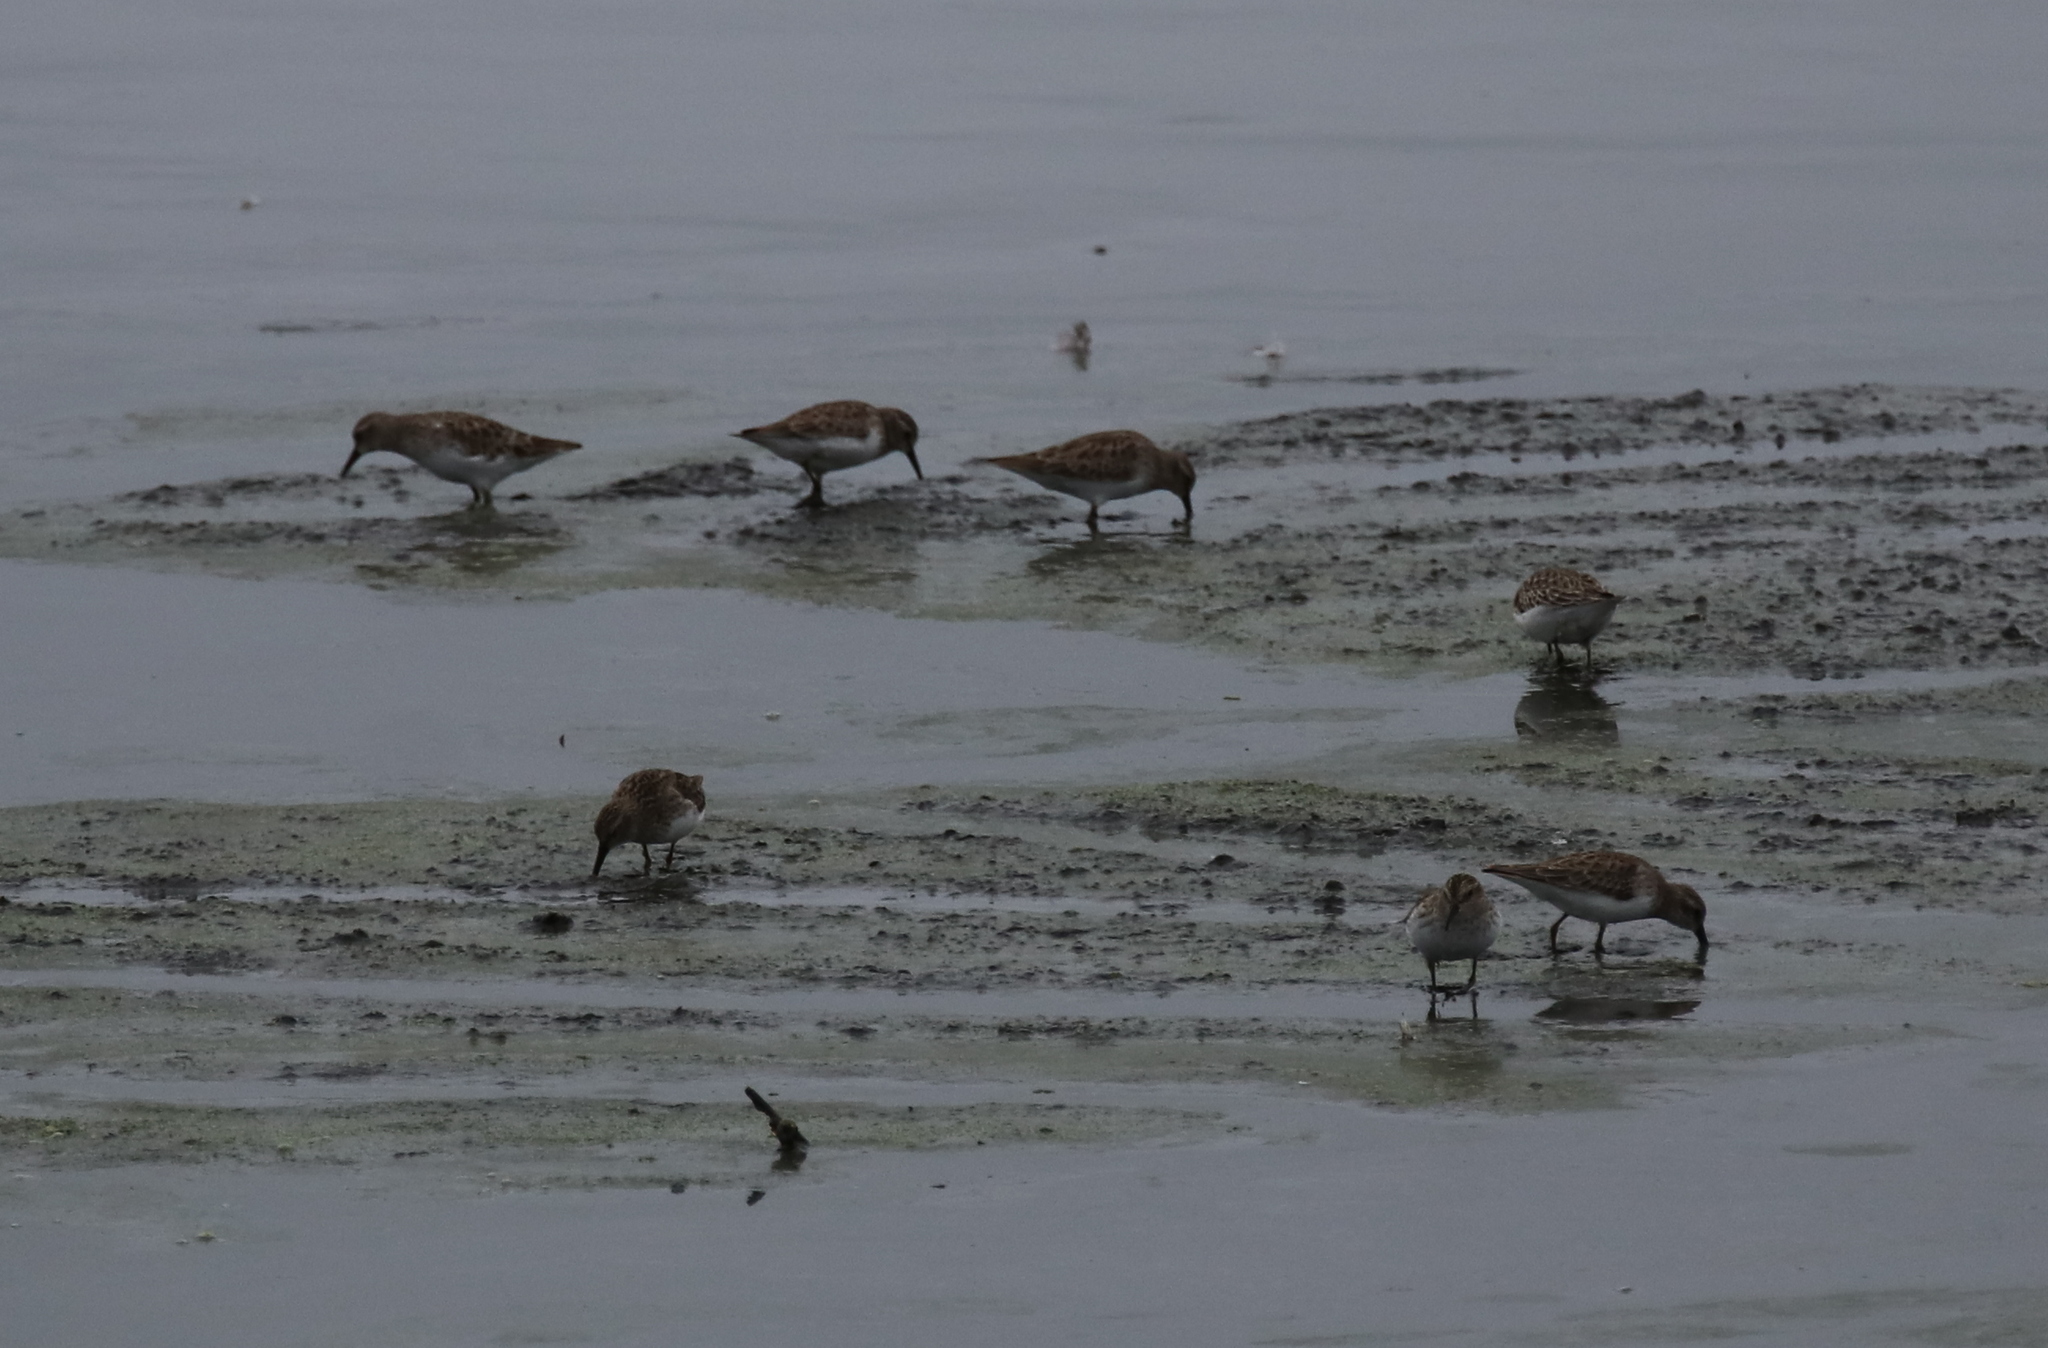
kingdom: Animalia
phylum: Chordata
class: Aves
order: Charadriiformes
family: Scolopacidae
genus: Calidris
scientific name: Calidris minutilla
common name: Least sandpiper
